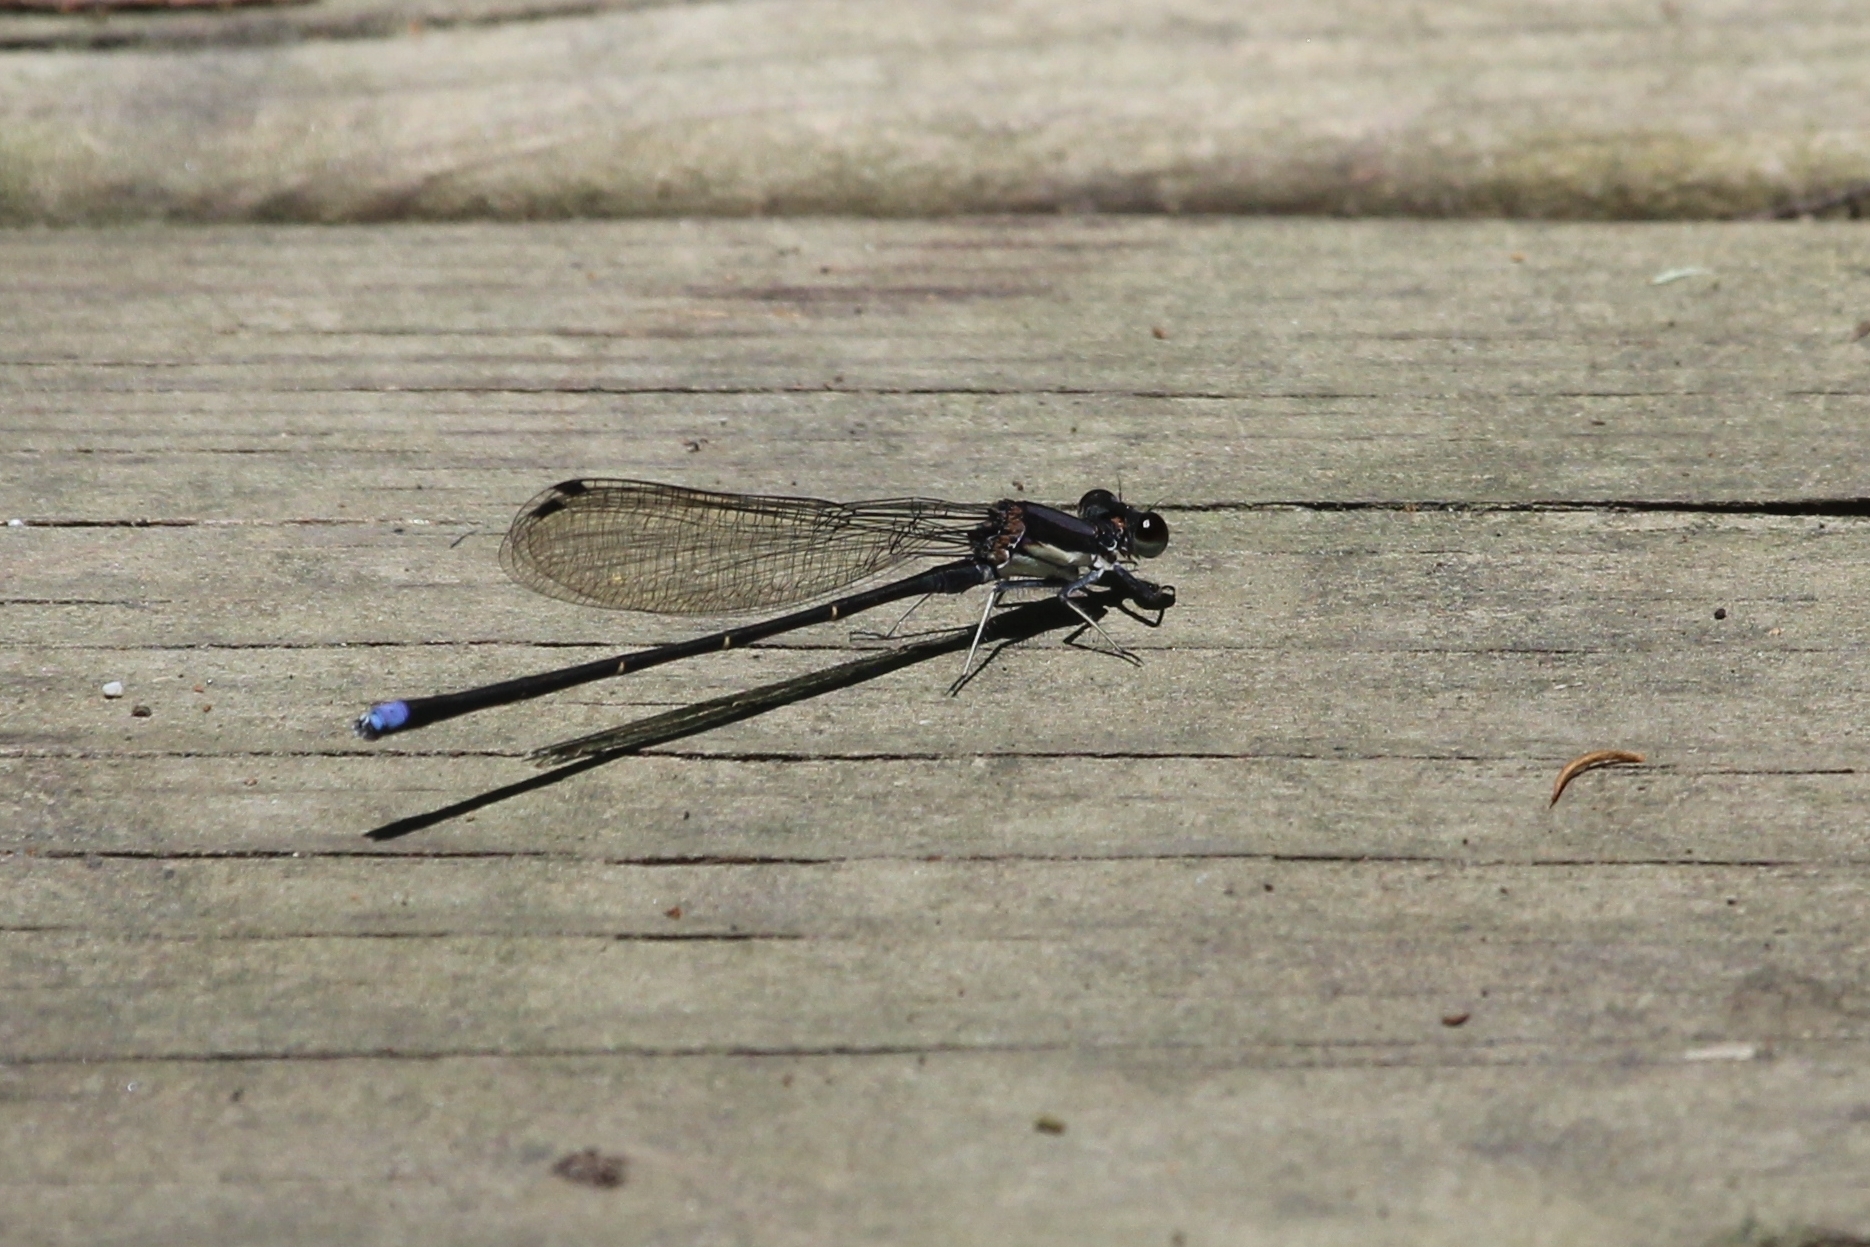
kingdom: Animalia
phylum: Arthropoda
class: Insecta
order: Odonata
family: Coenagrionidae
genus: Argia
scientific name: Argia tibialis
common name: Blue-tipped dancer
